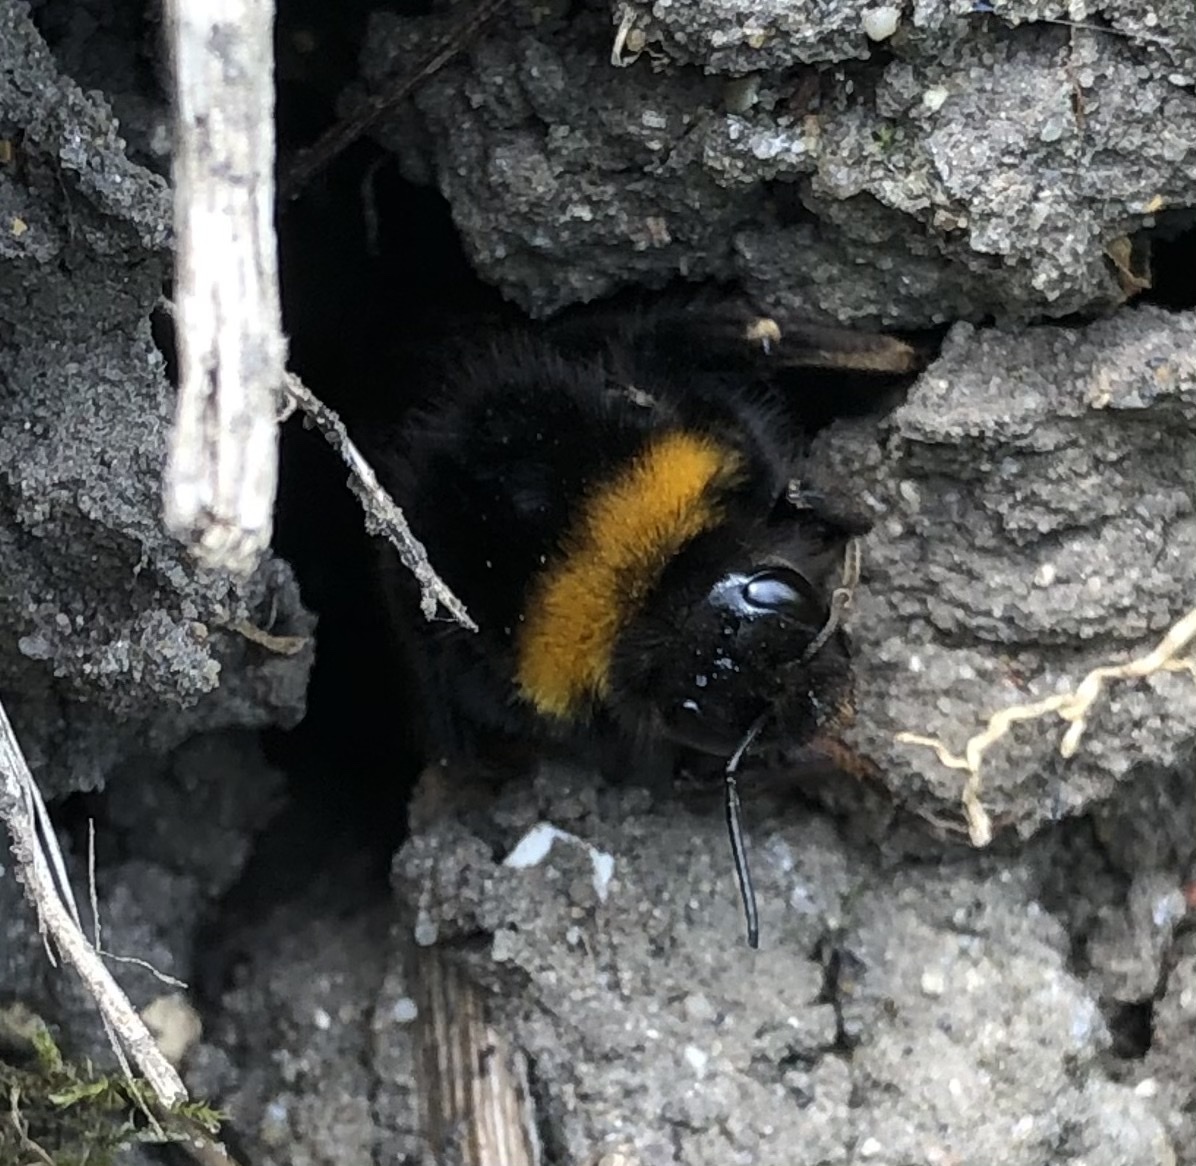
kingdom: Animalia
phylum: Arthropoda
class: Insecta
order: Hymenoptera
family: Apidae
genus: Bombus
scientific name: Bombus terrestris
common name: Buff-tailed bumblebee
